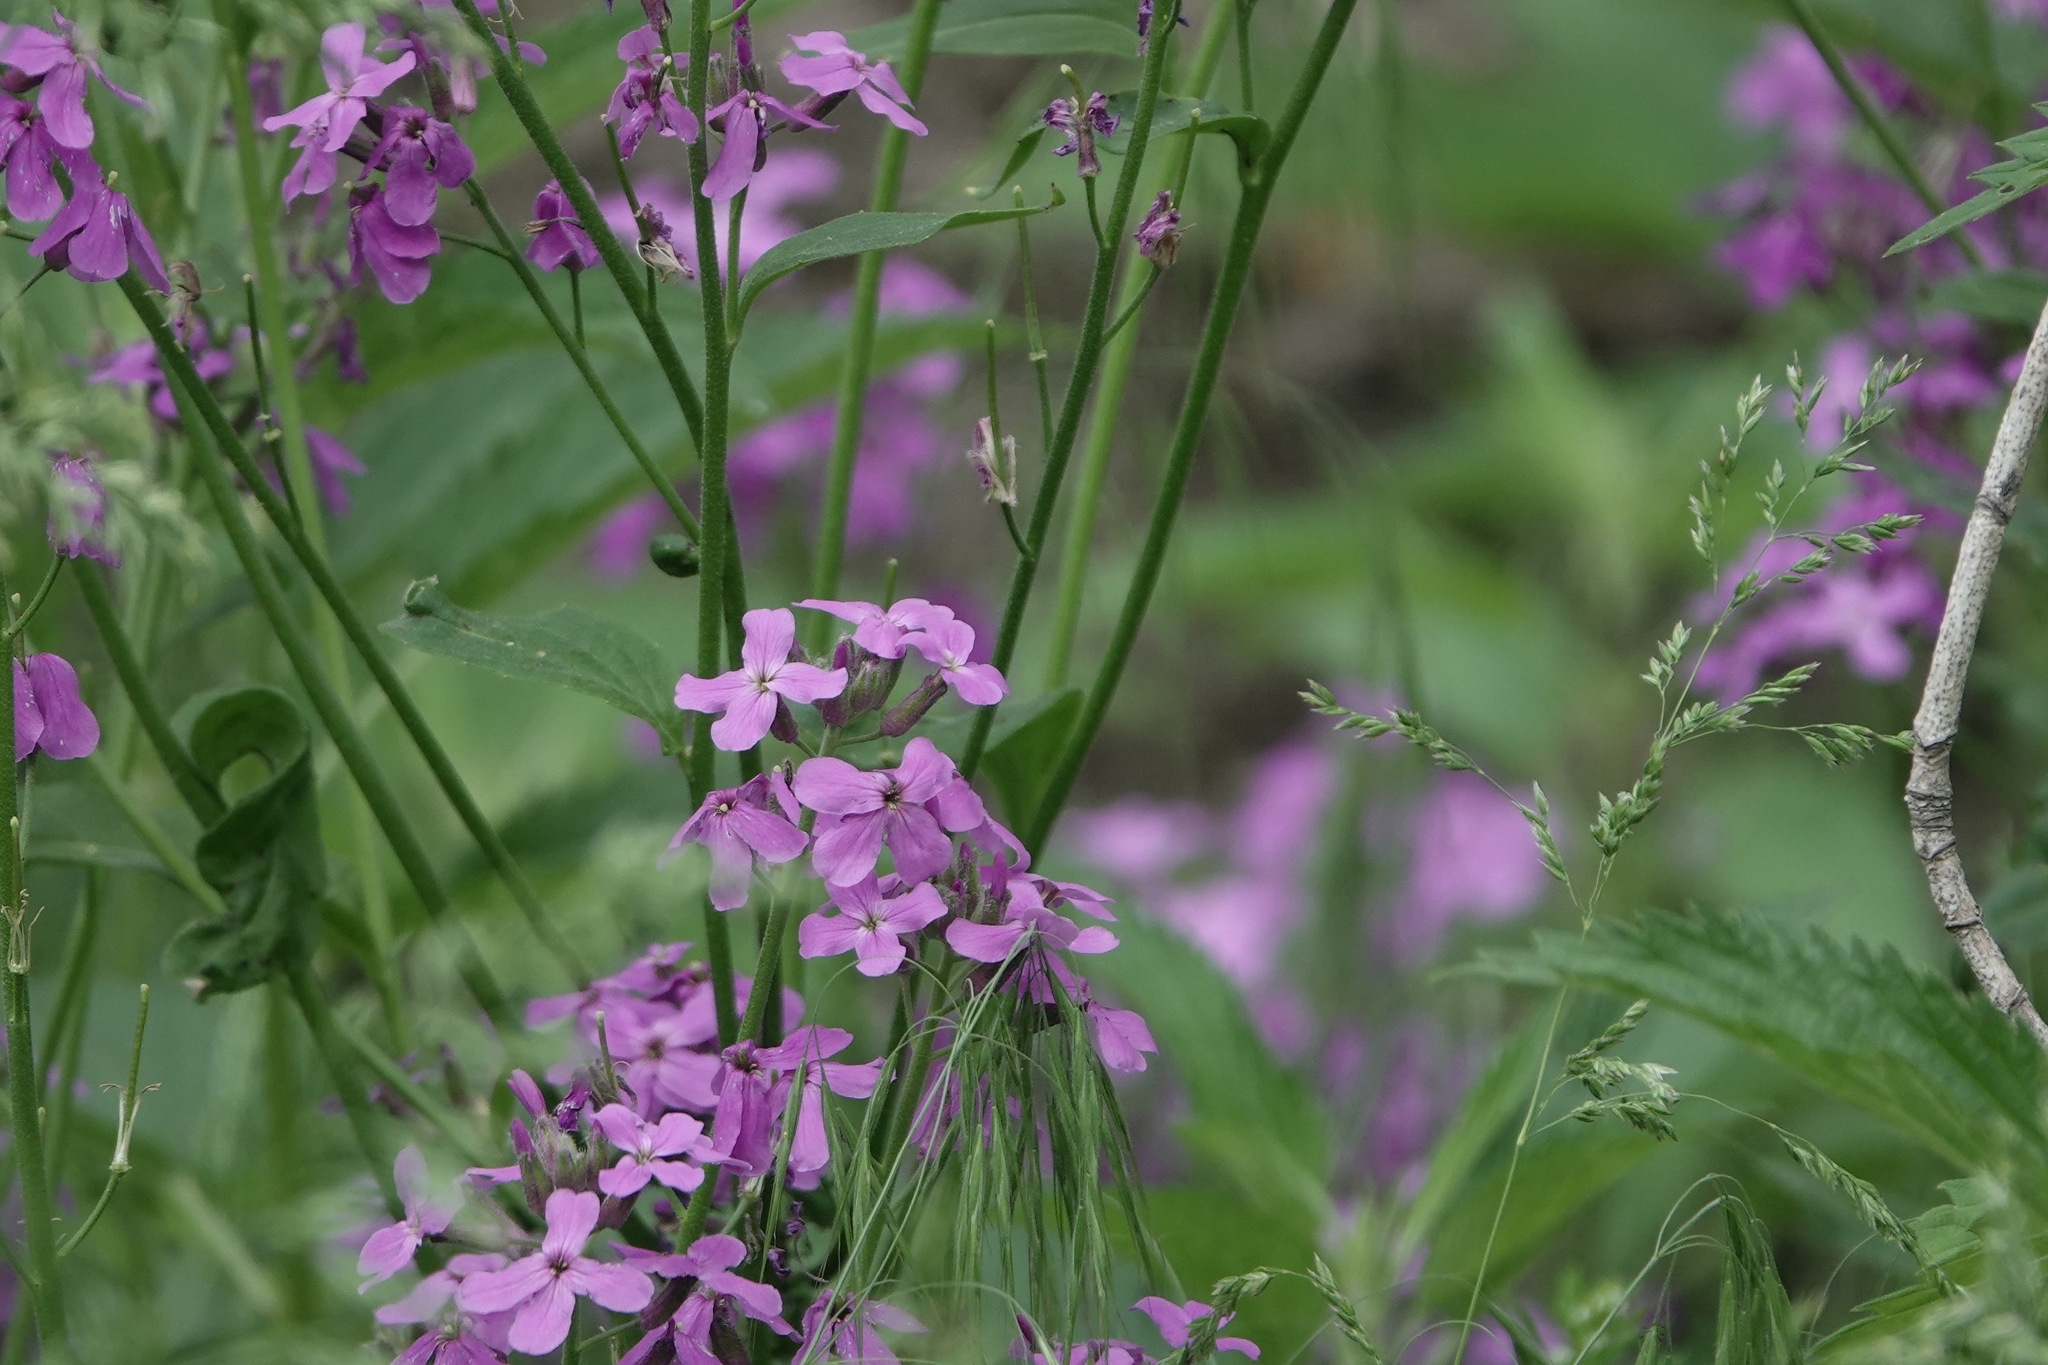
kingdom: Plantae
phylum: Tracheophyta
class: Magnoliopsida
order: Brassicales
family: Brassicaceae
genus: Hesperis
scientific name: Hesperis matronalis
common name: Dame's-violet
